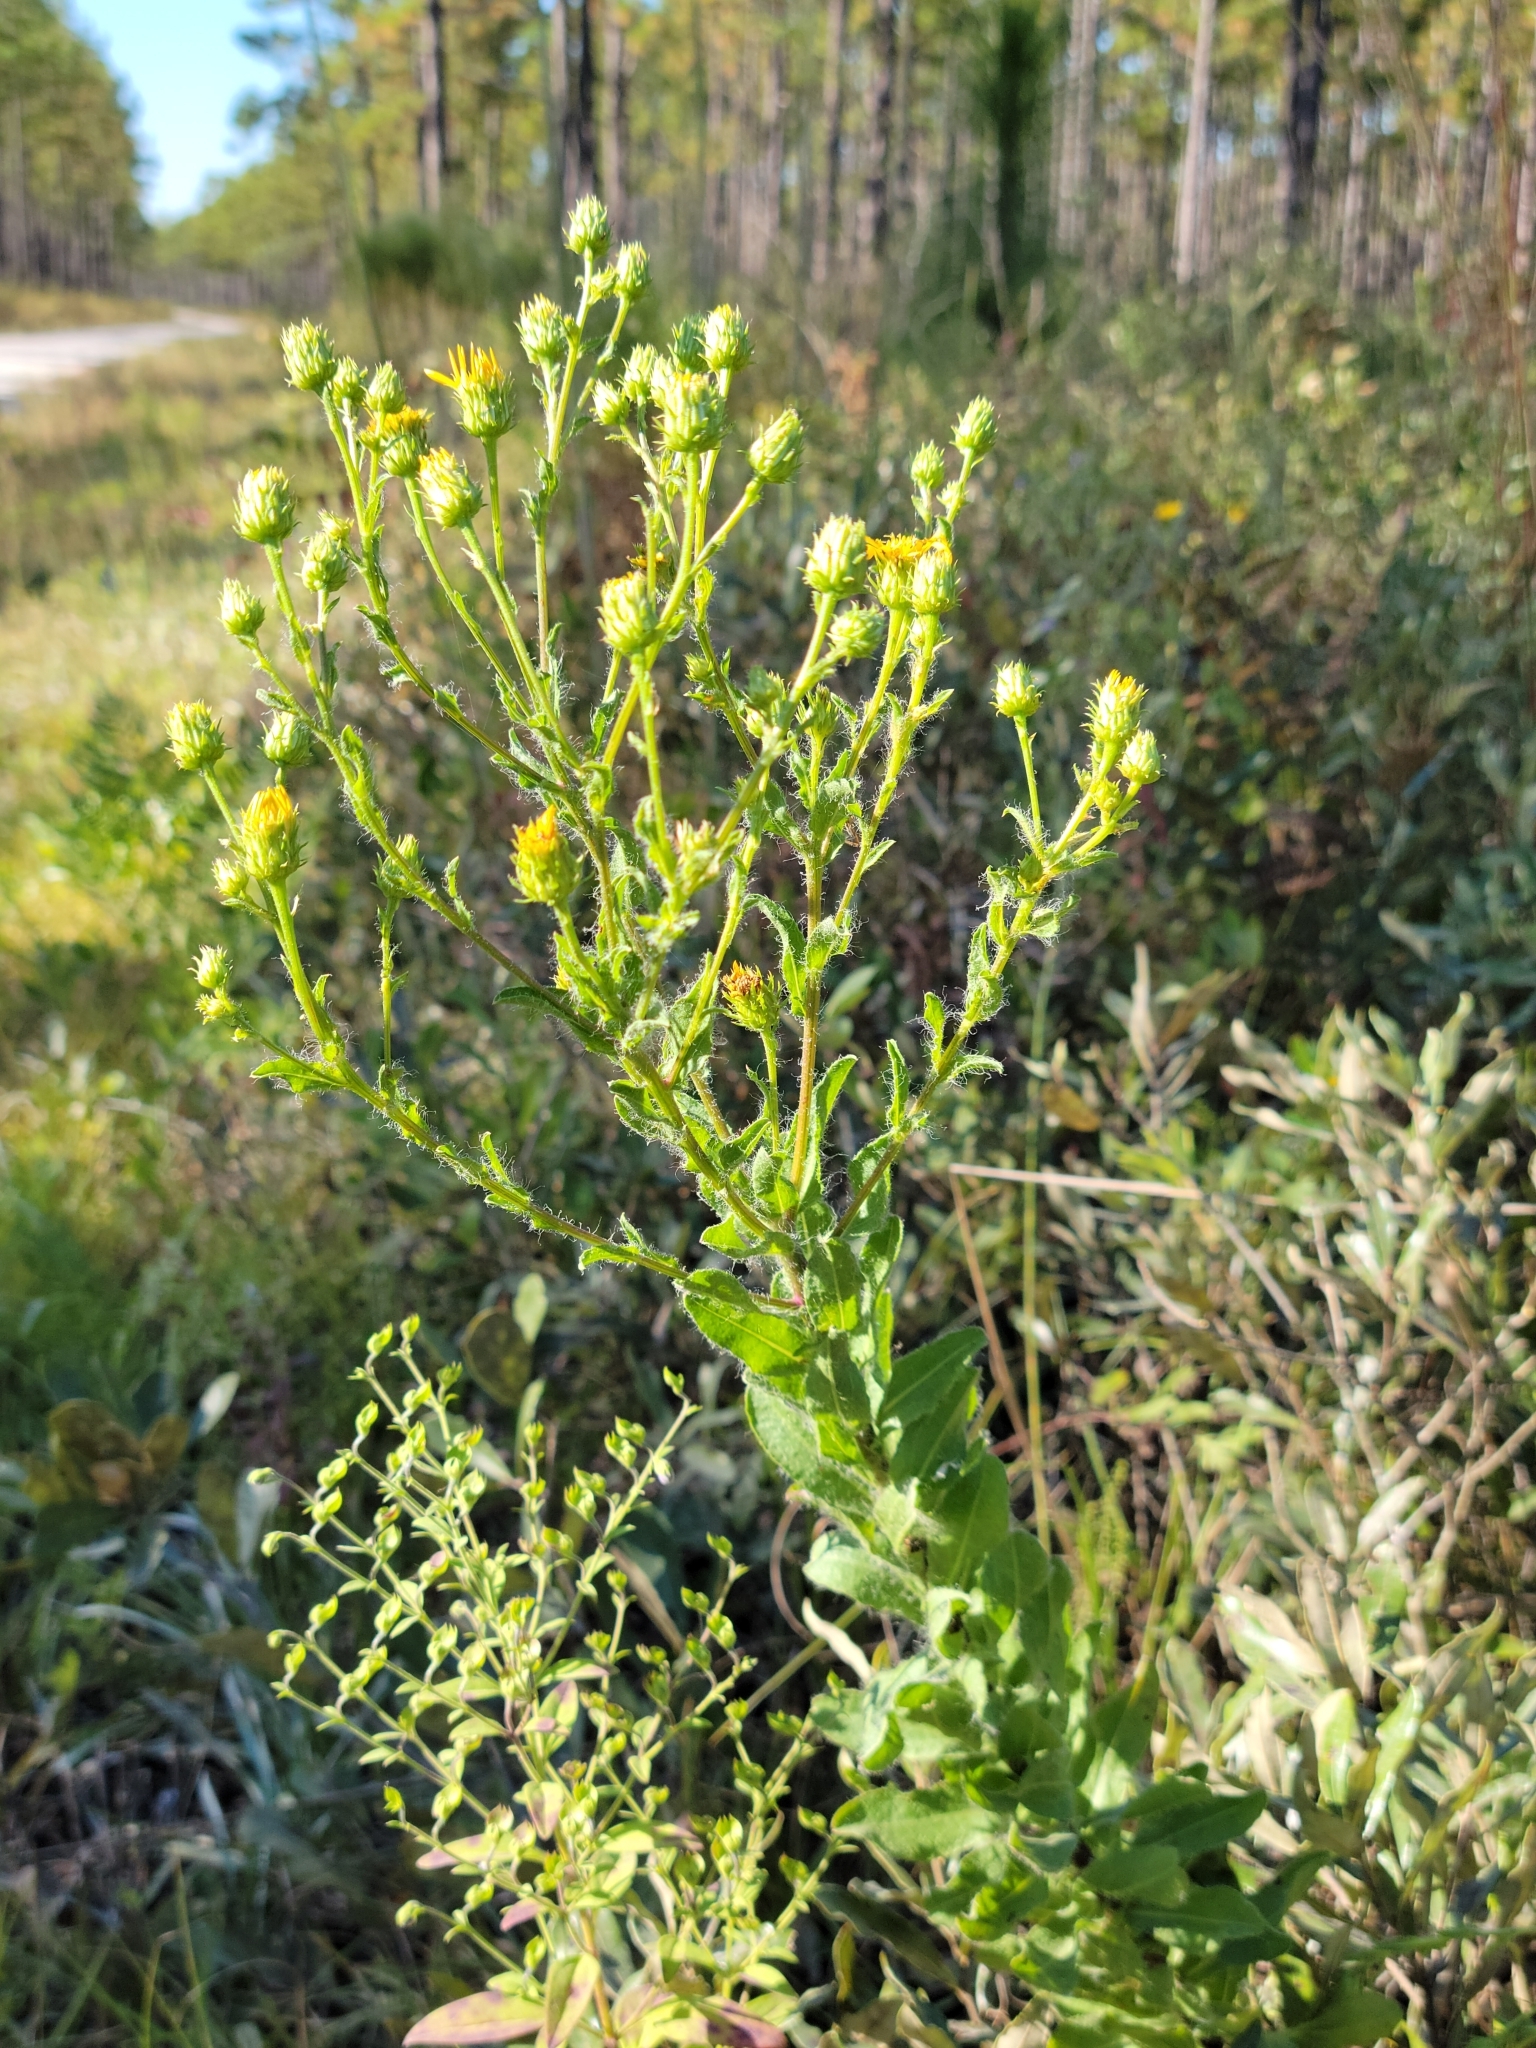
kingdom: Plantae
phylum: Tracheophyta
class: Magnoliopsida
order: Asterales
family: Asteraceae
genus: Chrysopsis
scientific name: Chrysopsis gossypina
